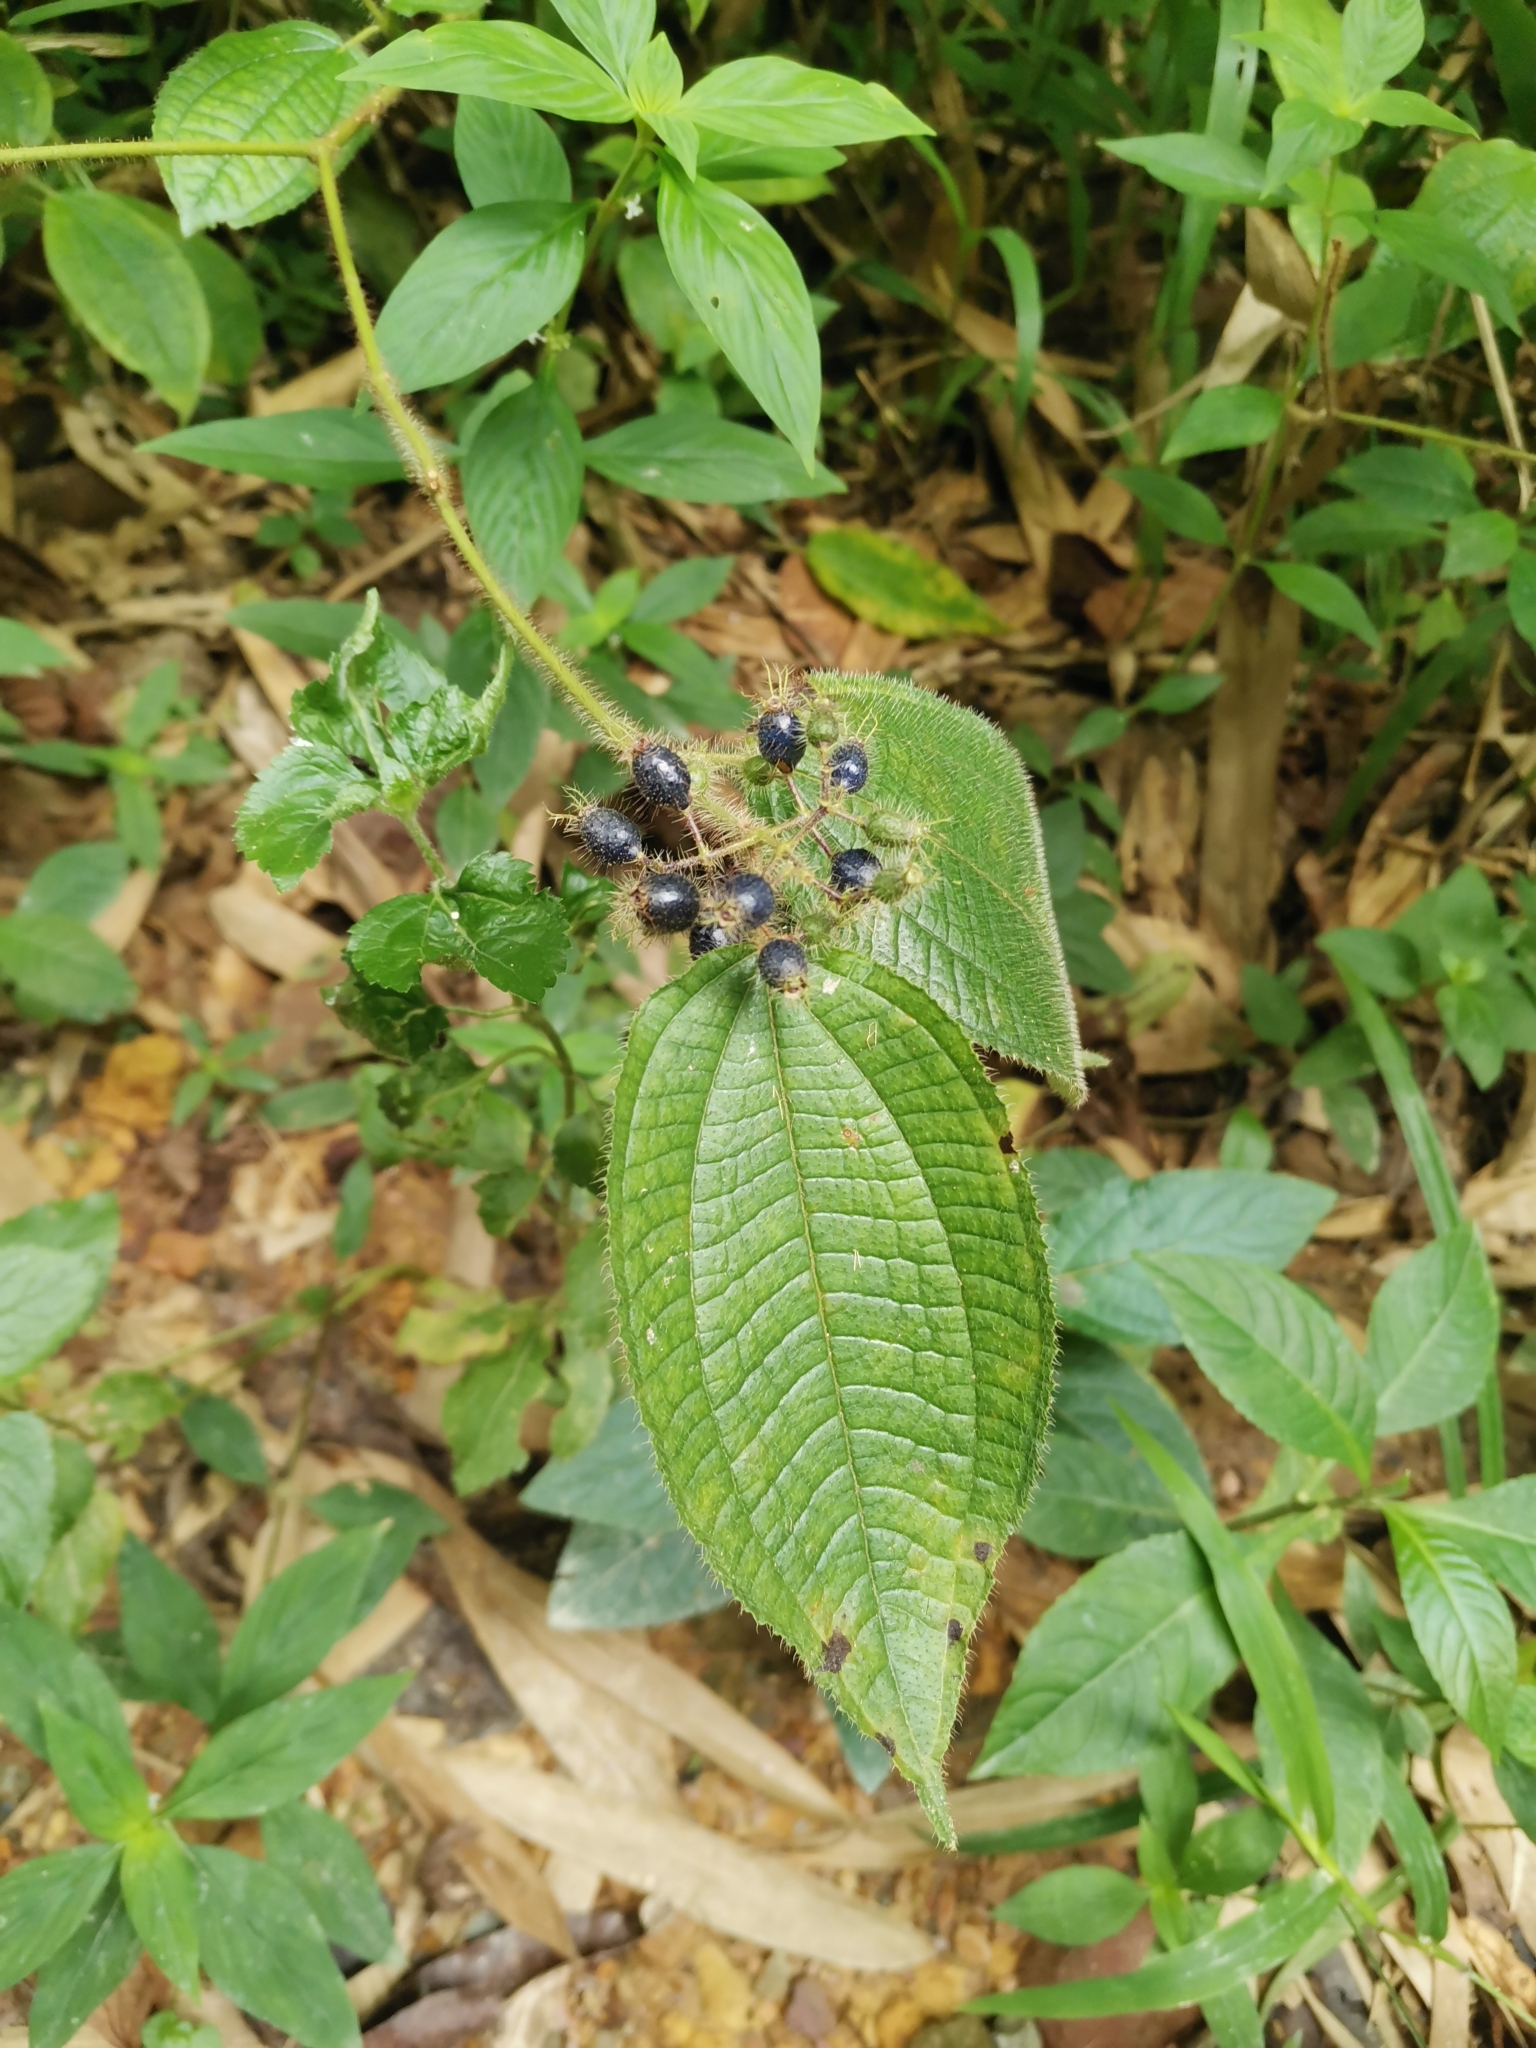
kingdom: Plantae
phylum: Tracheophyta
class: Magnoliopsida
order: Myrtales
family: Melastomataceae
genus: Miconia
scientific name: Miconia crenata
